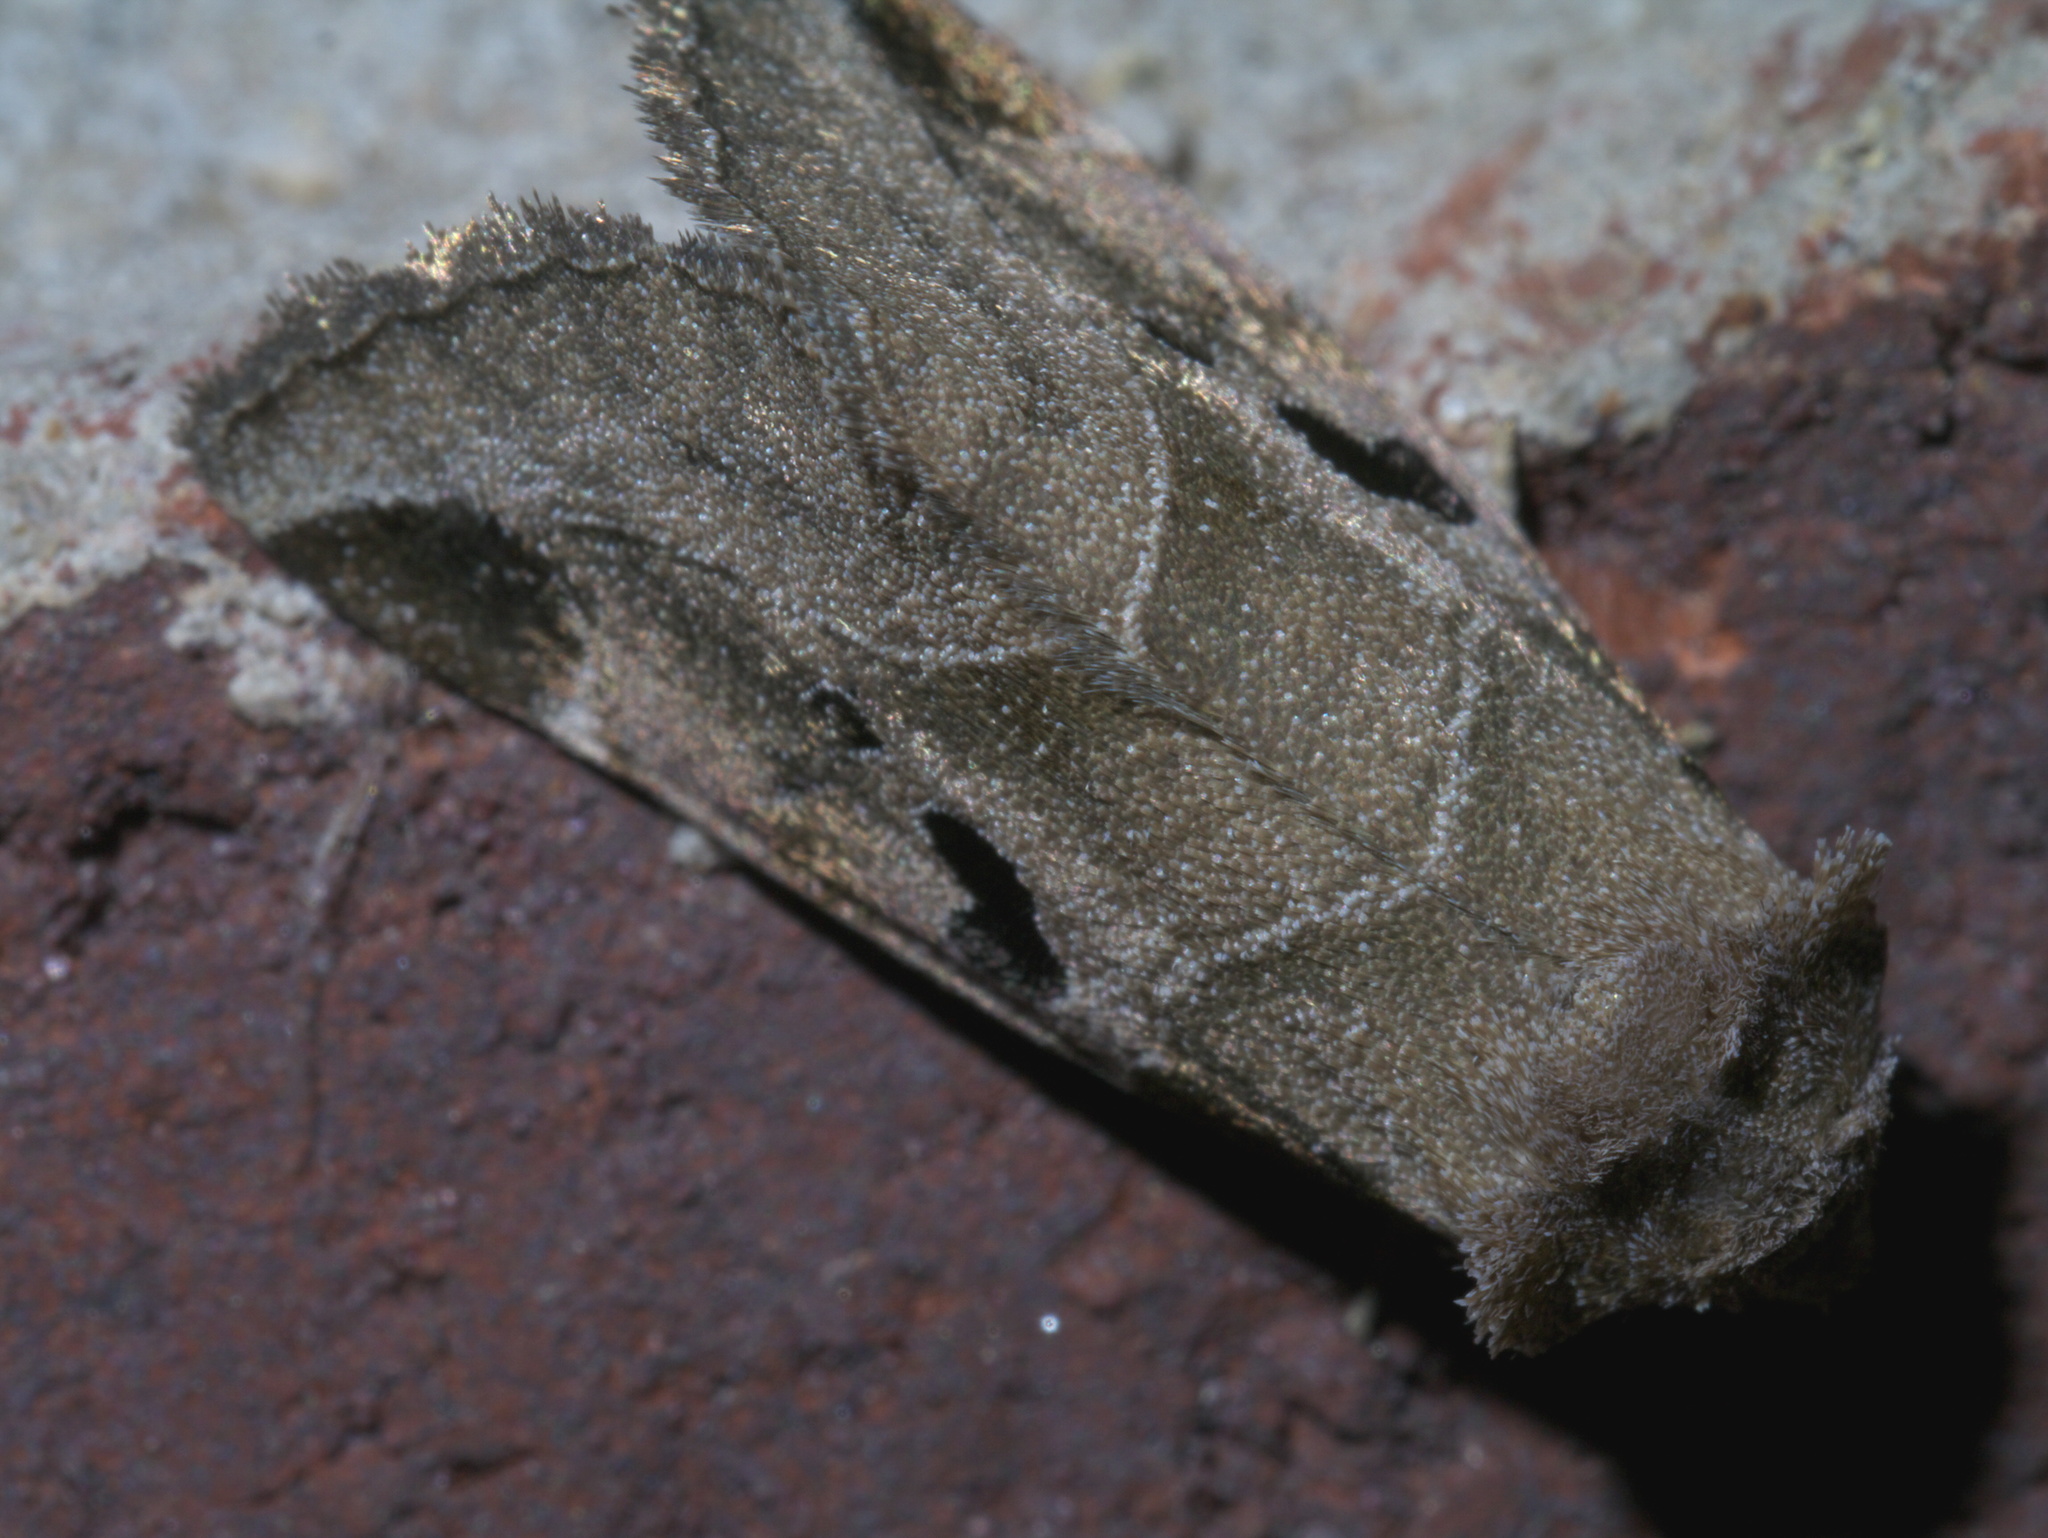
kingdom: Animalia
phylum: Arthropoda
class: Insecta
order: Lepidoptera
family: Noctuidae
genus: Plagiomimicus
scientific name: Plagiomimicus pityochromus
